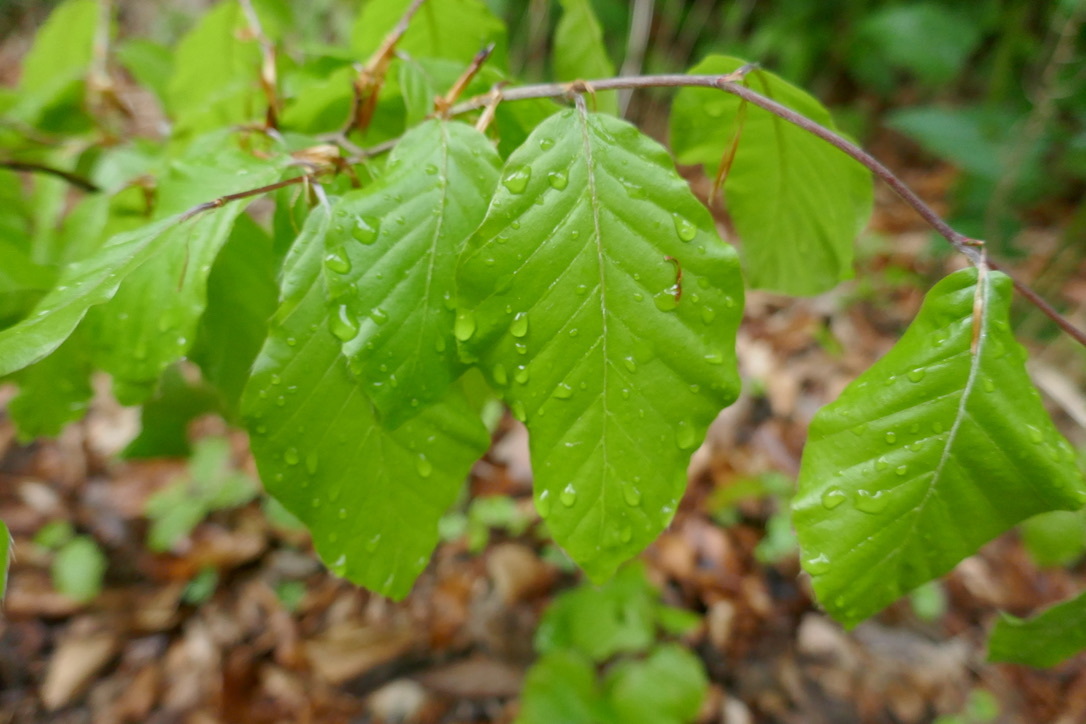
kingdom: Plantae
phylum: Tracheophyta
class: Magnoliopsida
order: Fagales
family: Fagaceae
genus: Fagus
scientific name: Fagus sylvatica
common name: Beech
